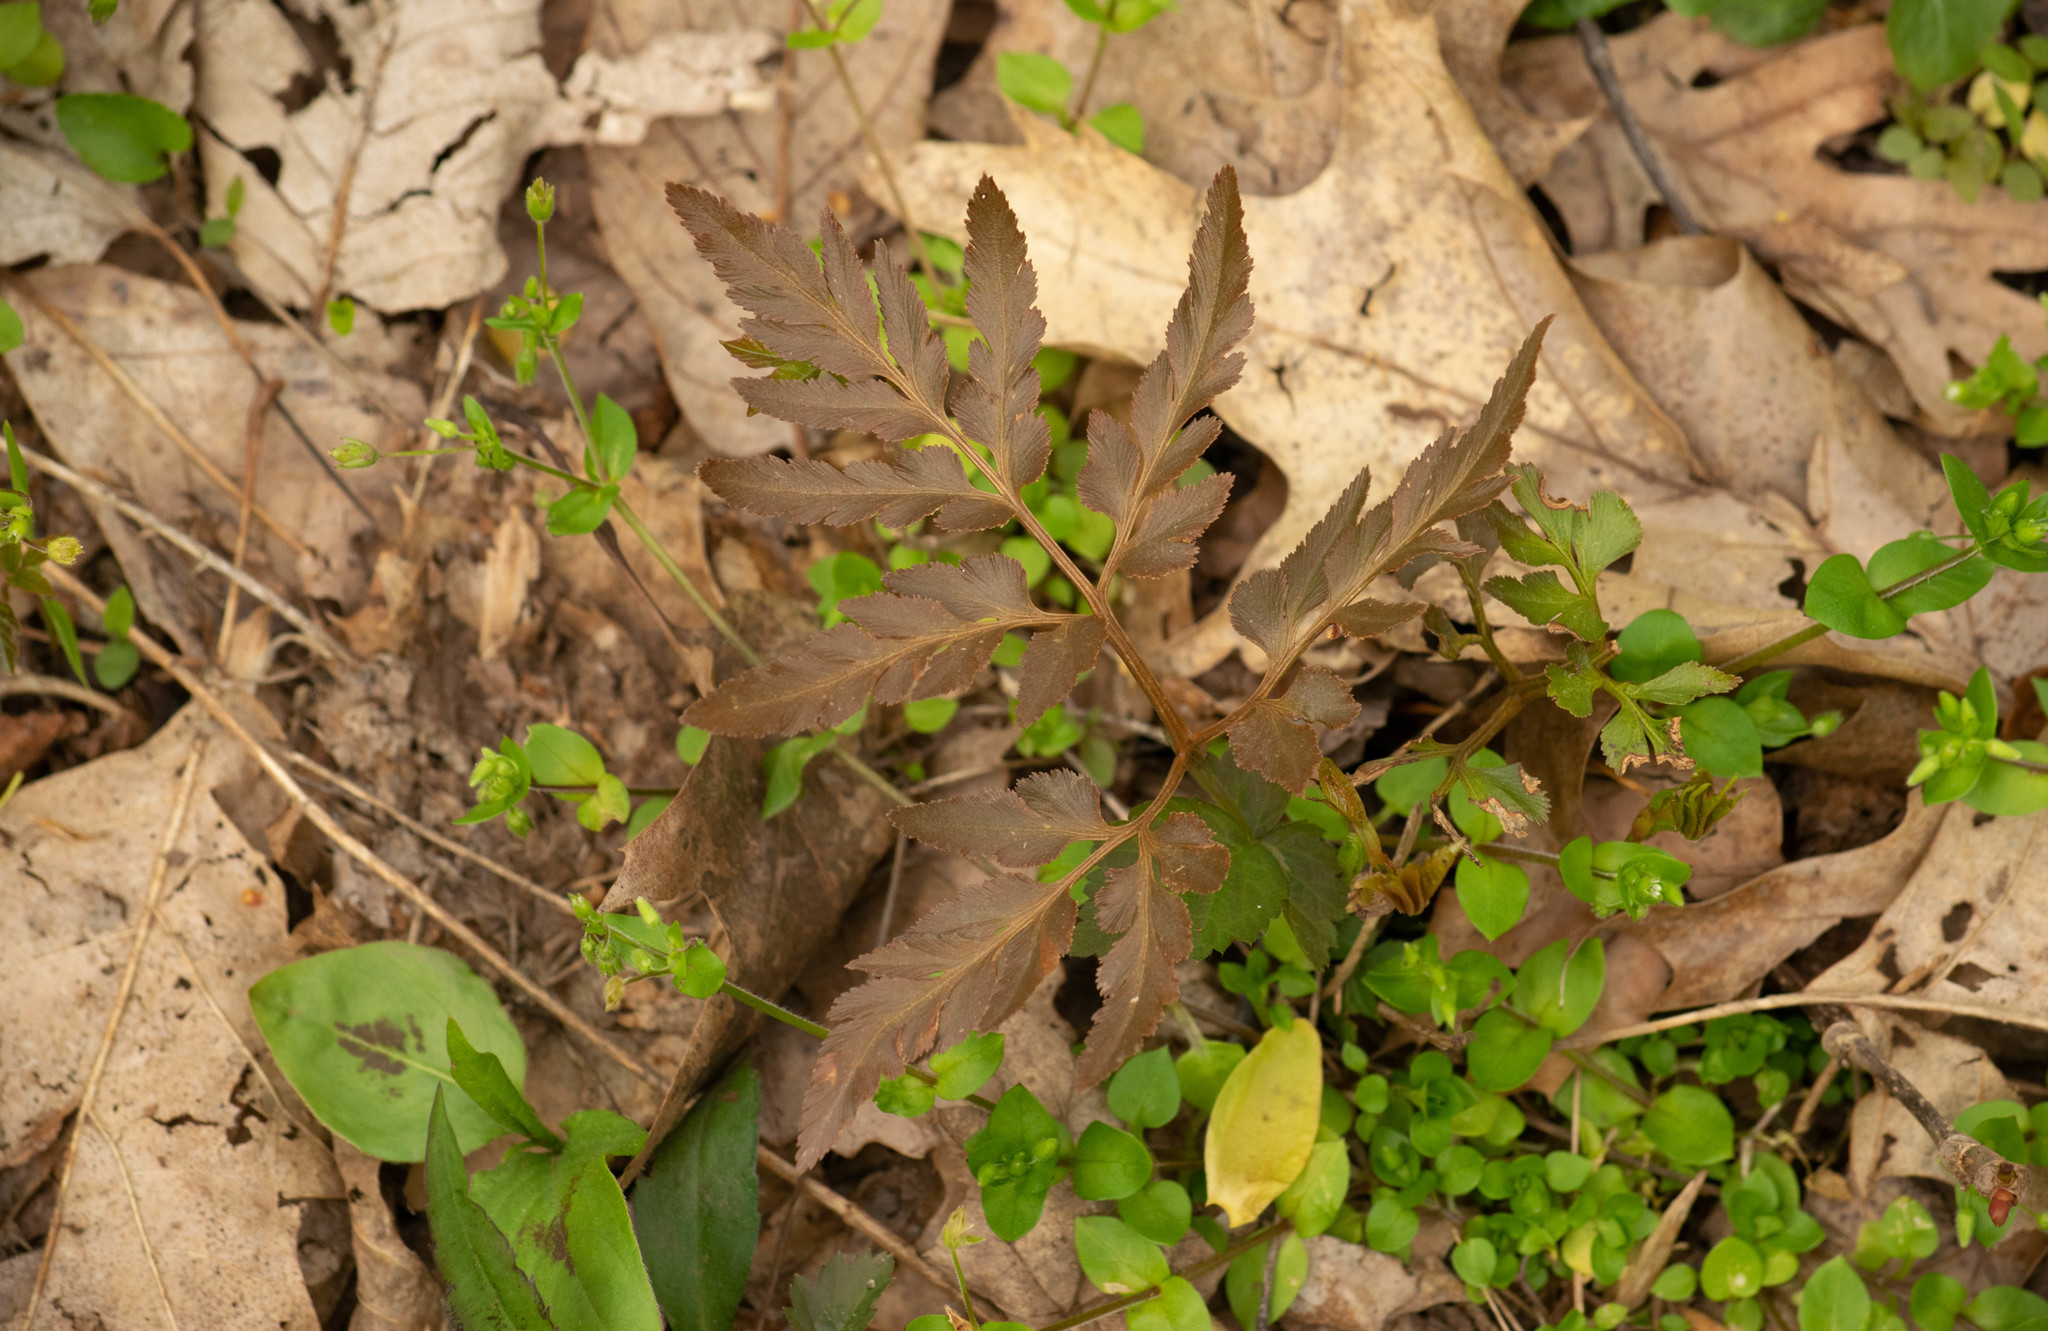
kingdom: Plantae
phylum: Tracheophyta
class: Polypodiopsida
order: Ophioglossales
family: Ophioglossaceae
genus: Sceptridium
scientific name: Sceptridium dissectum
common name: Cut-leaved grapefern
